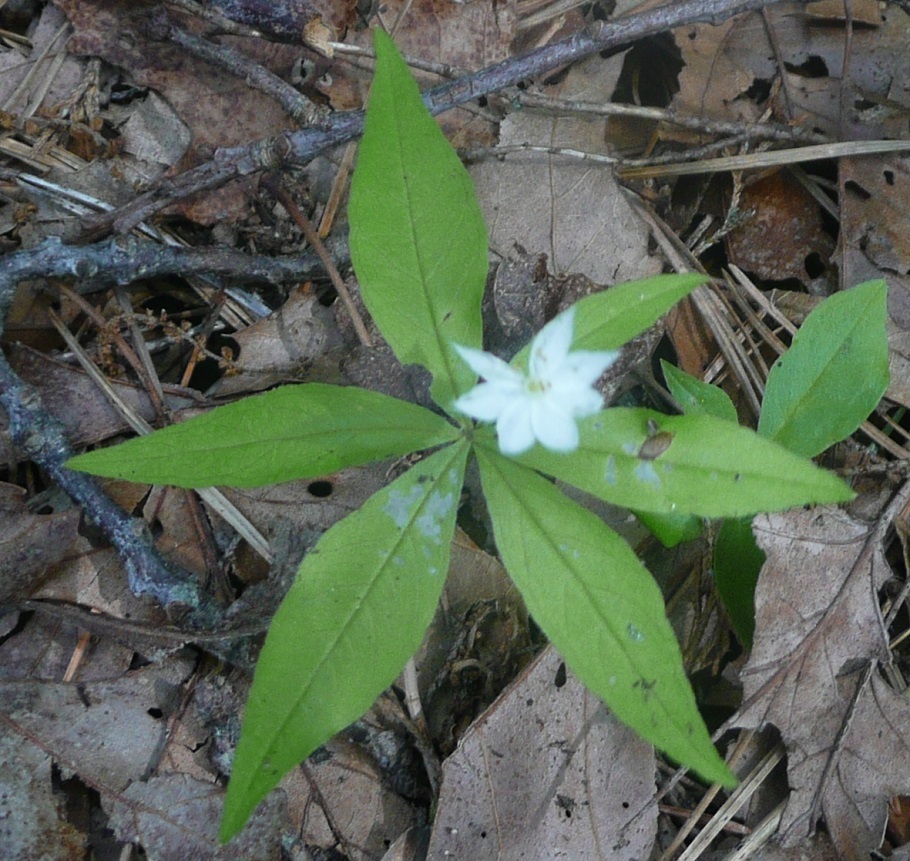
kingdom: Plantae
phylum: Tracheophyta
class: Magnoliopsida
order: Ericales
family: Primulaceae
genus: Lysimachia
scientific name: Lysimachia borealis
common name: American starflower
